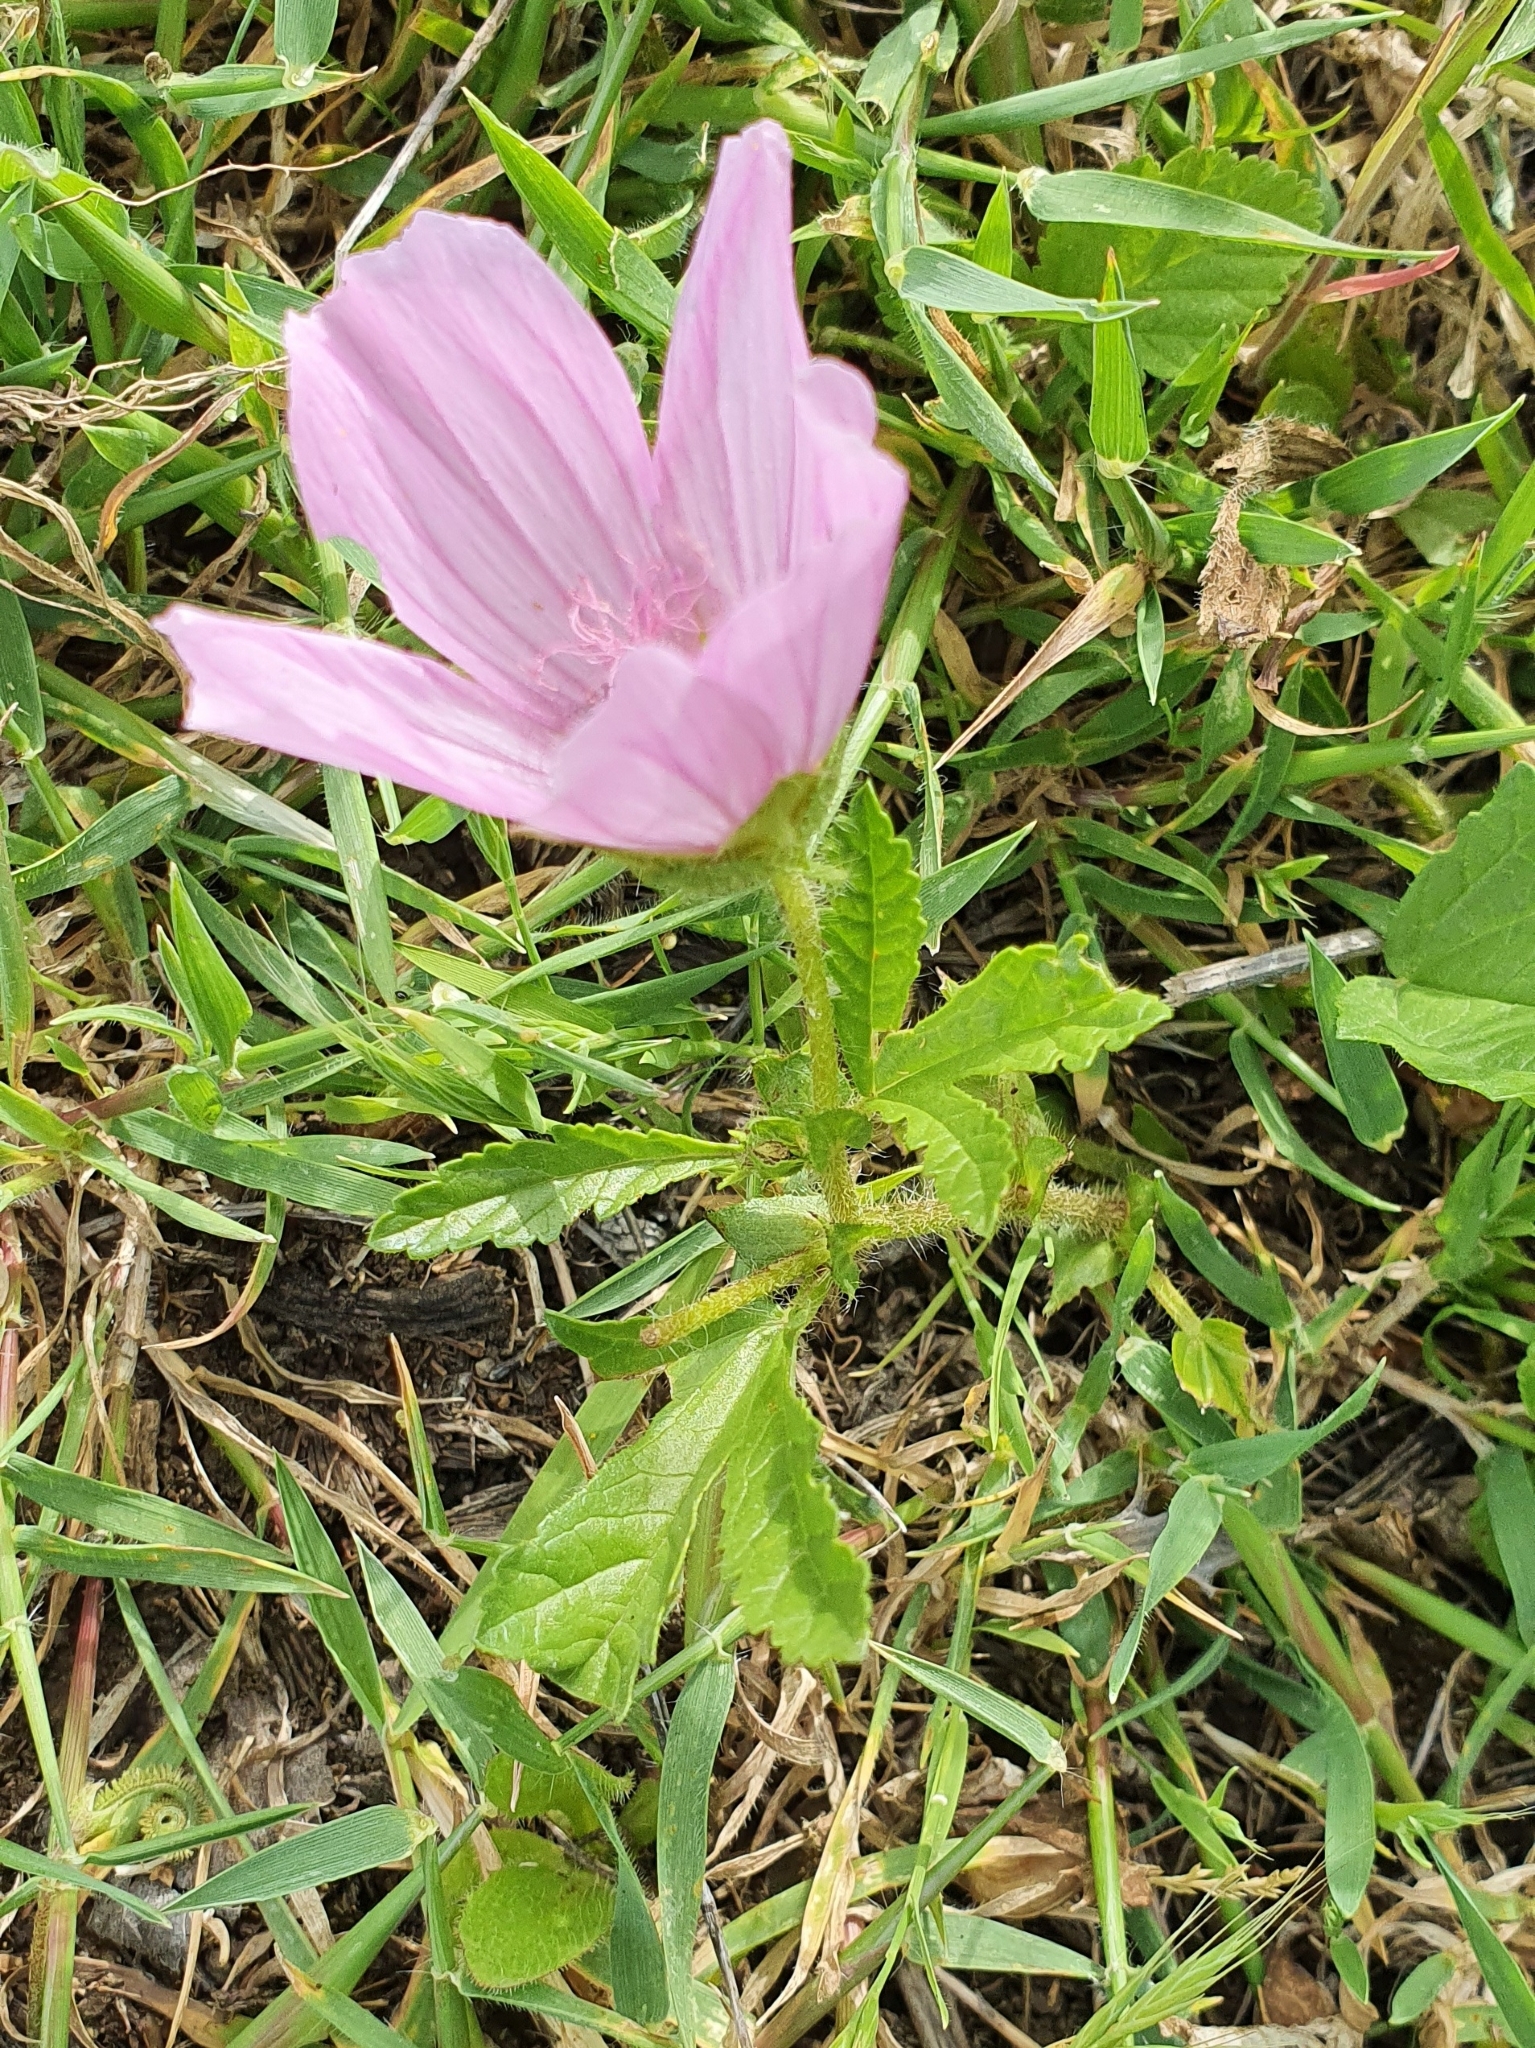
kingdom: Plantae
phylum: Tracheophyta
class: Magnoliopsida
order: Malvales
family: Malvaceae
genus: Malope
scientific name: Malope malacoides
